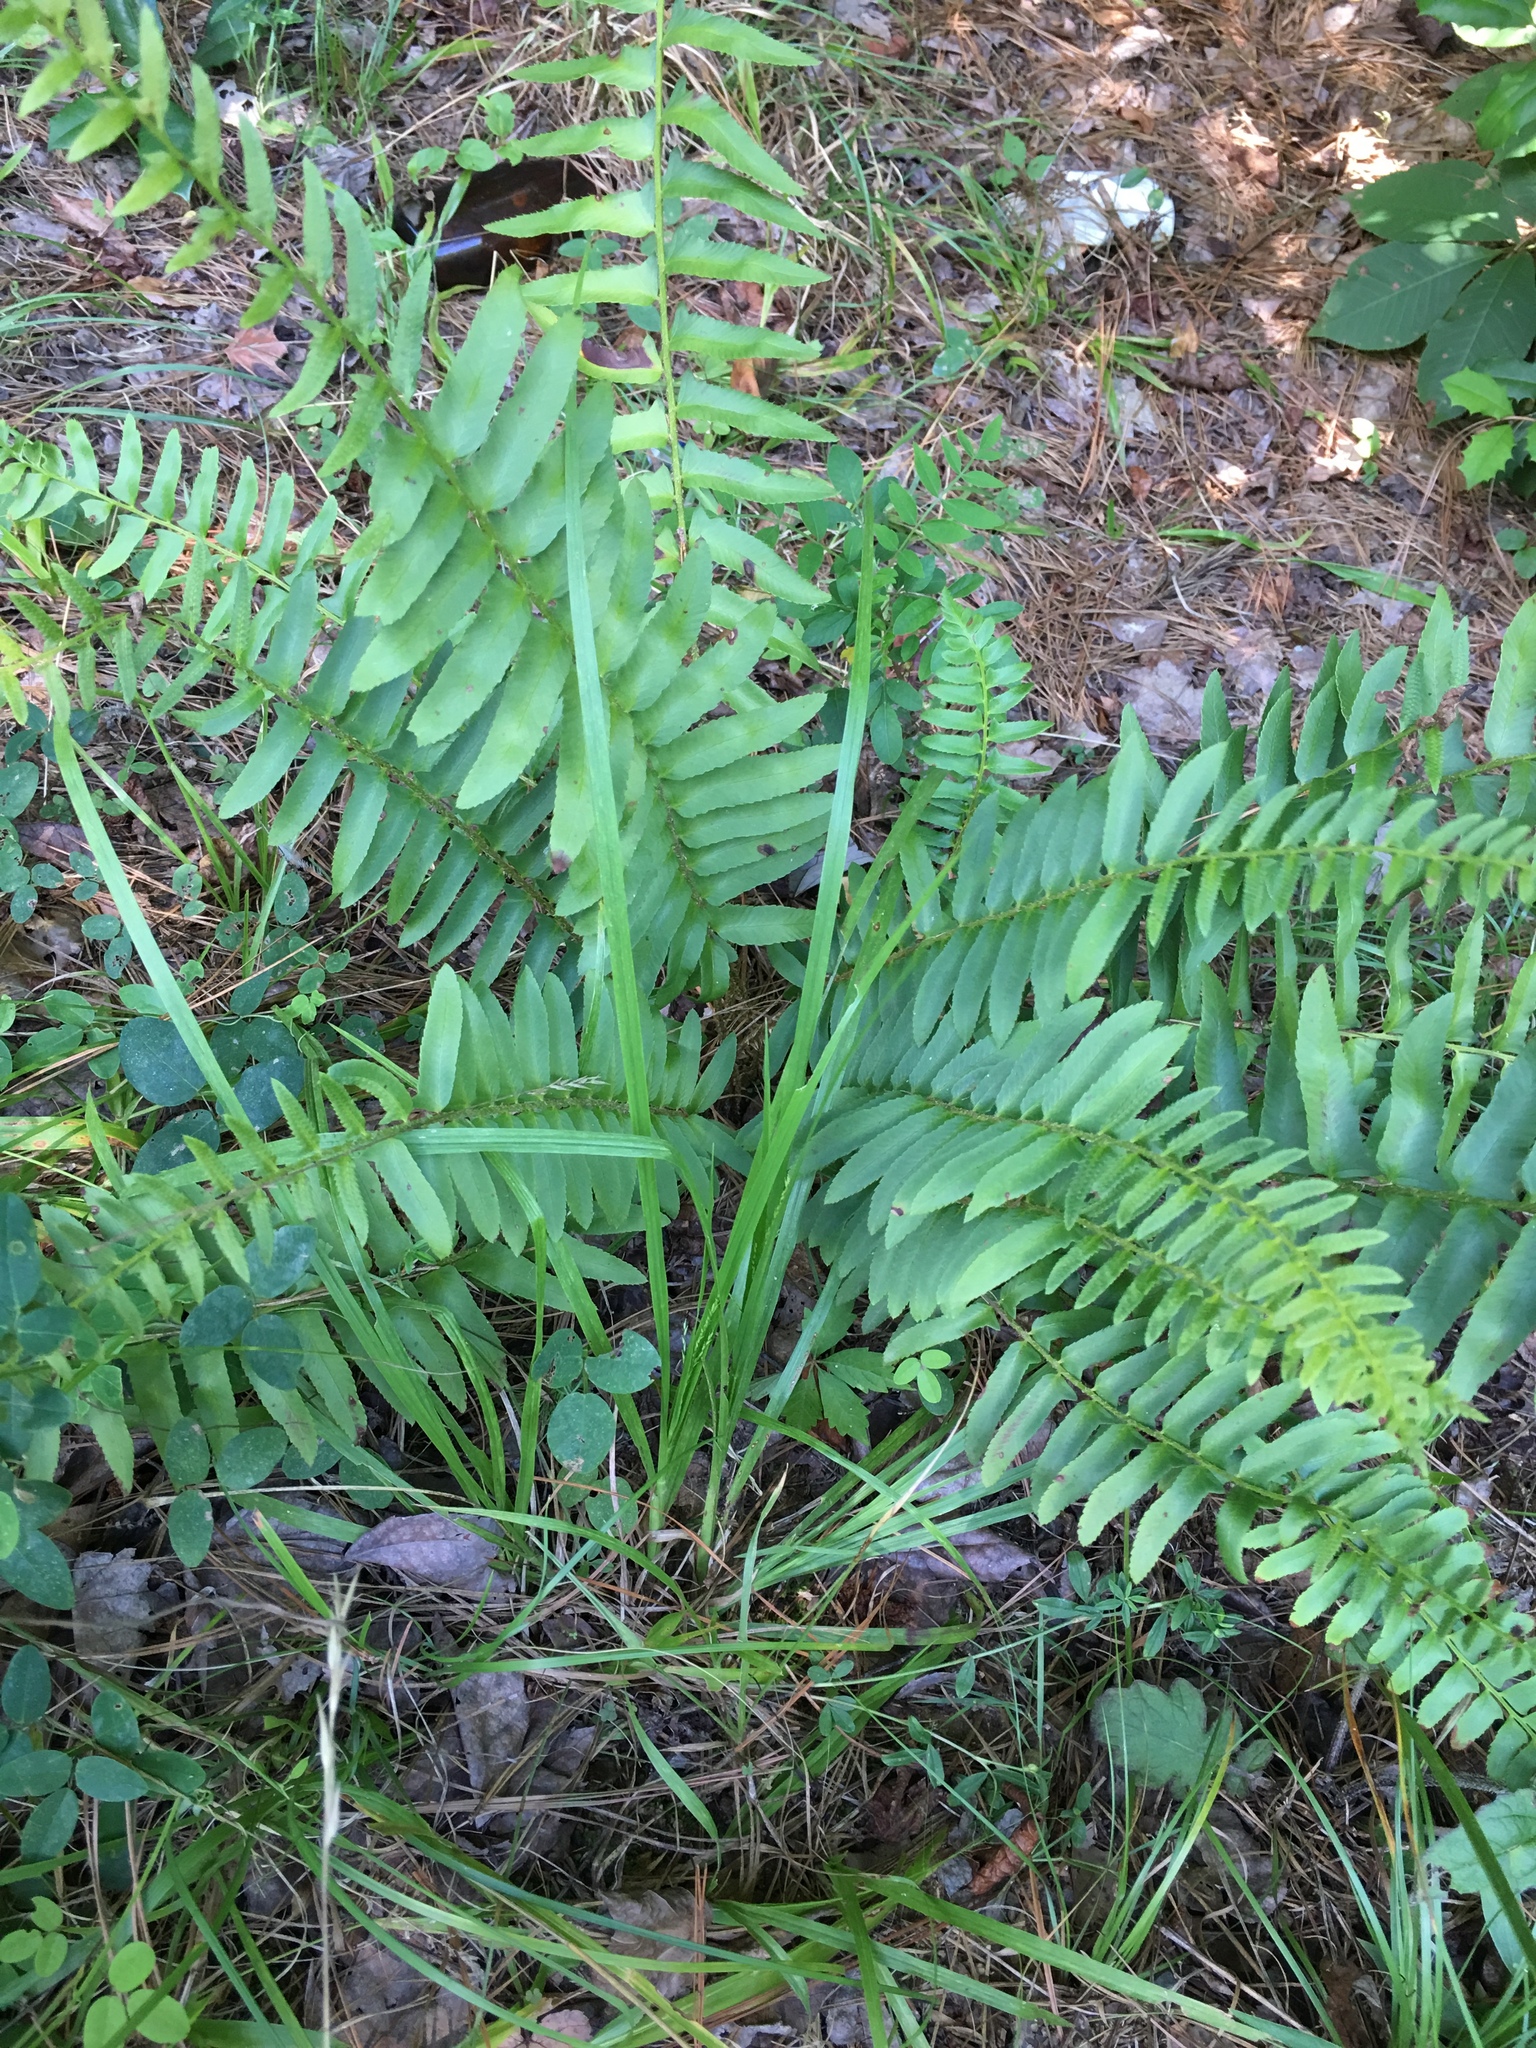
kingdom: Plantae
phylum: Tracheophyta
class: Polypodiopsida
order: Polypodiales
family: Dryopteridaceae
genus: Polystichum
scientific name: Polystichum acrostichoides
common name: Christmas fern
